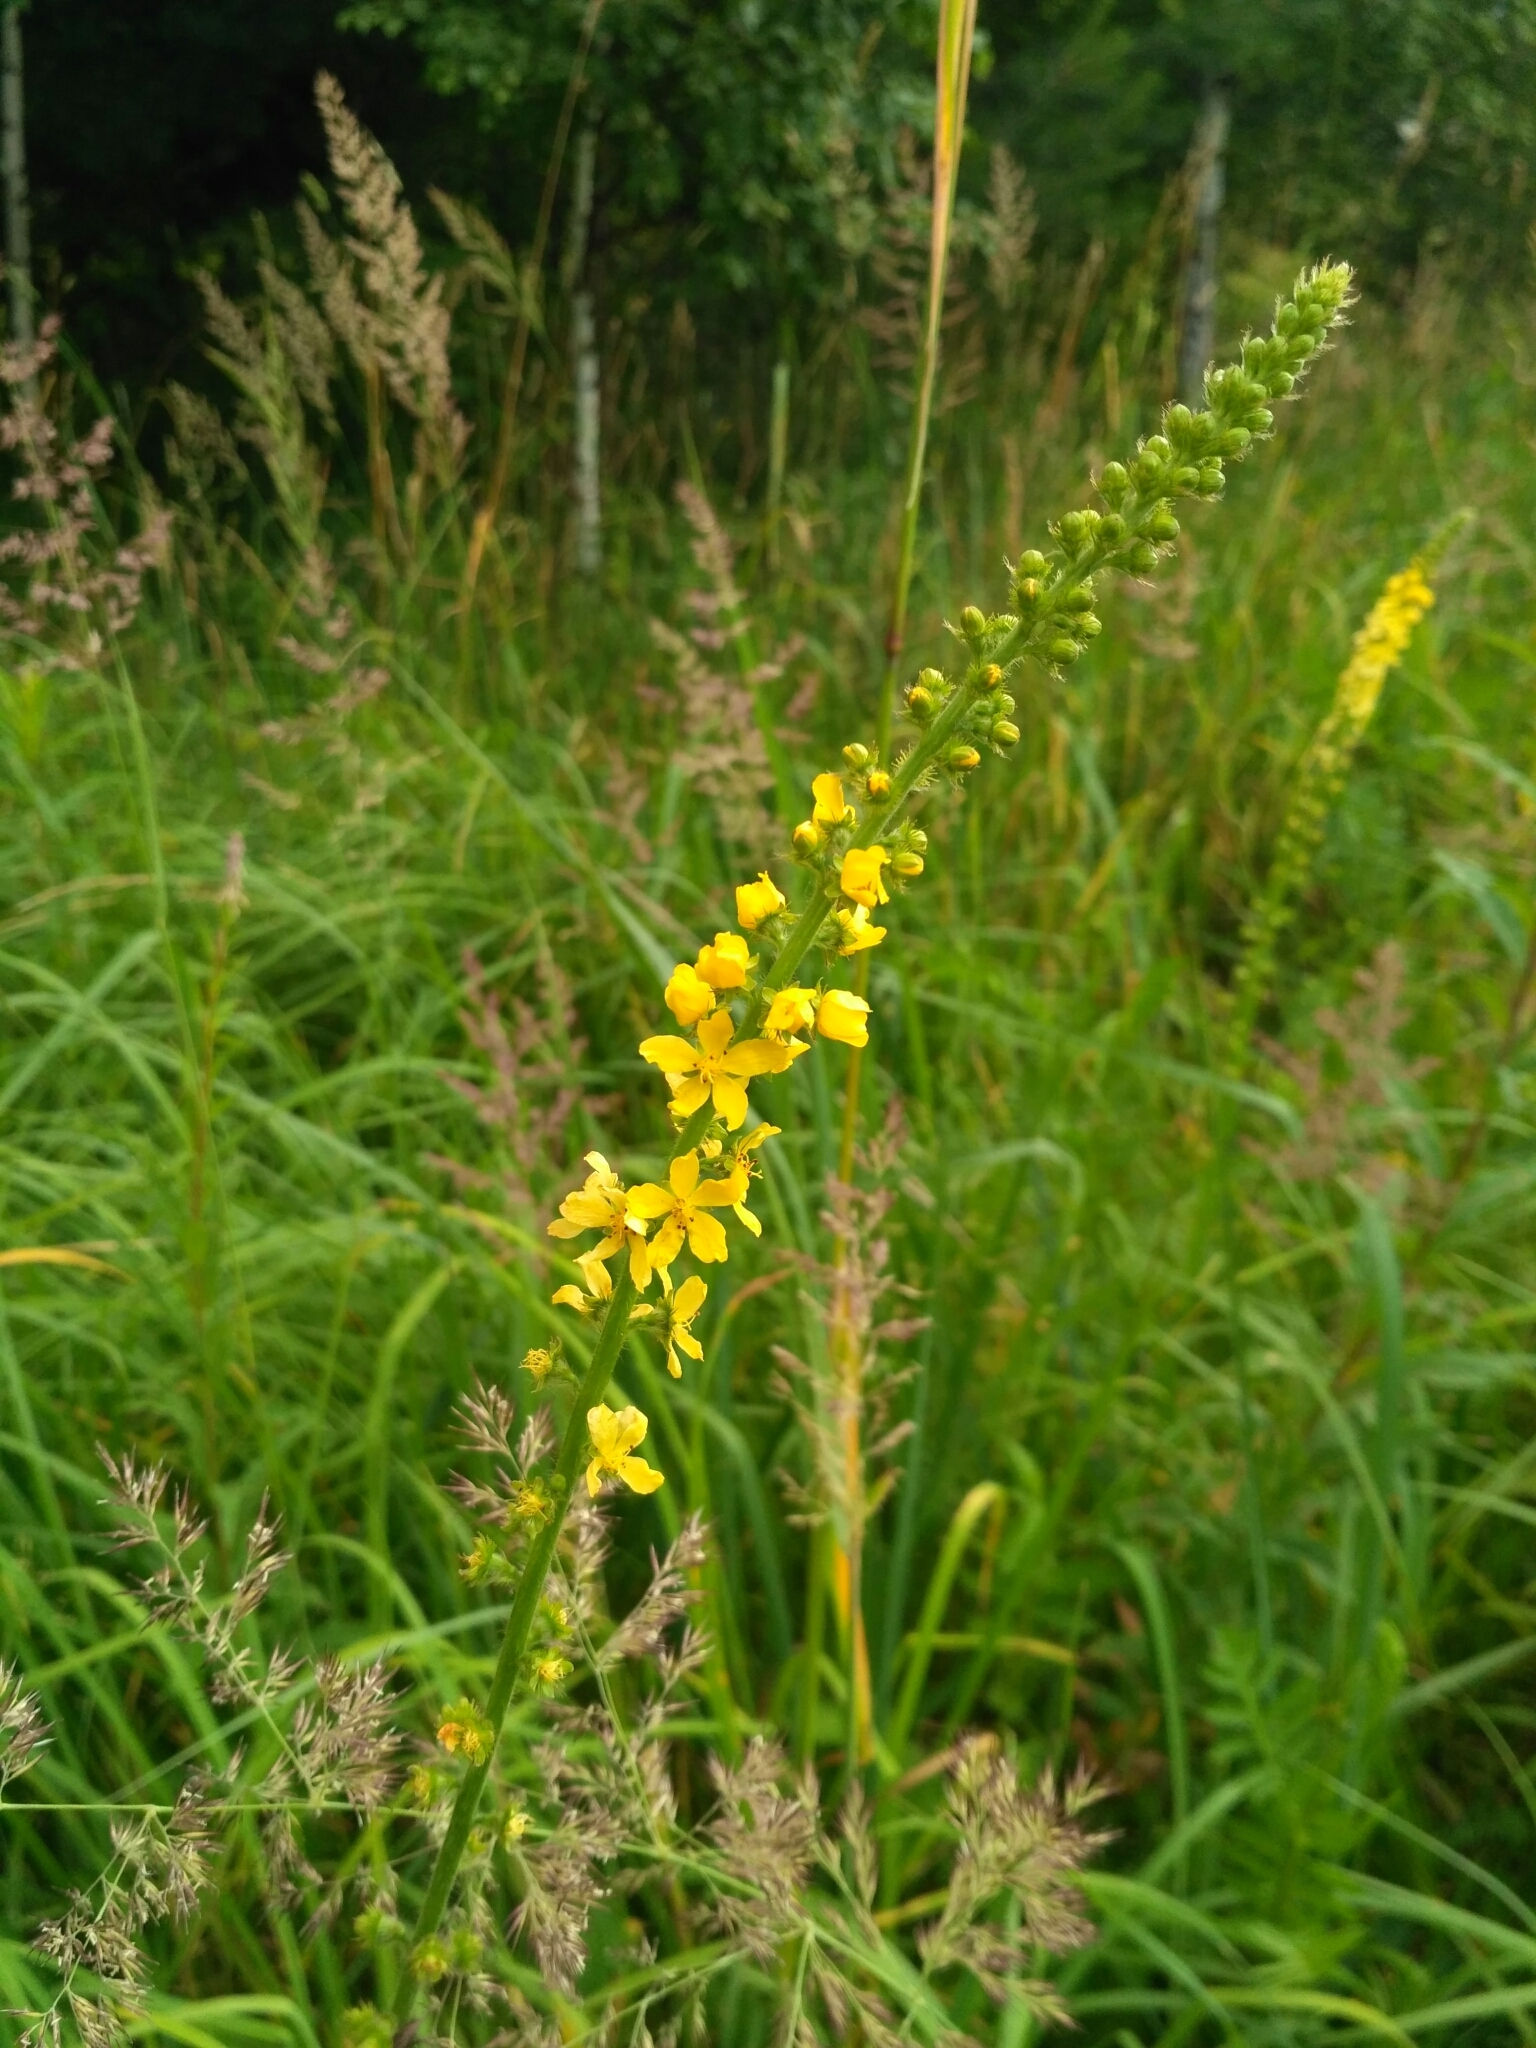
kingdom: Plantae
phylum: Tracheophyta
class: Magnoliopsida
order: Rosales
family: Rosaceae
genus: Agrimonia
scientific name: Agrimonia eupatoria
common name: Agrimony
